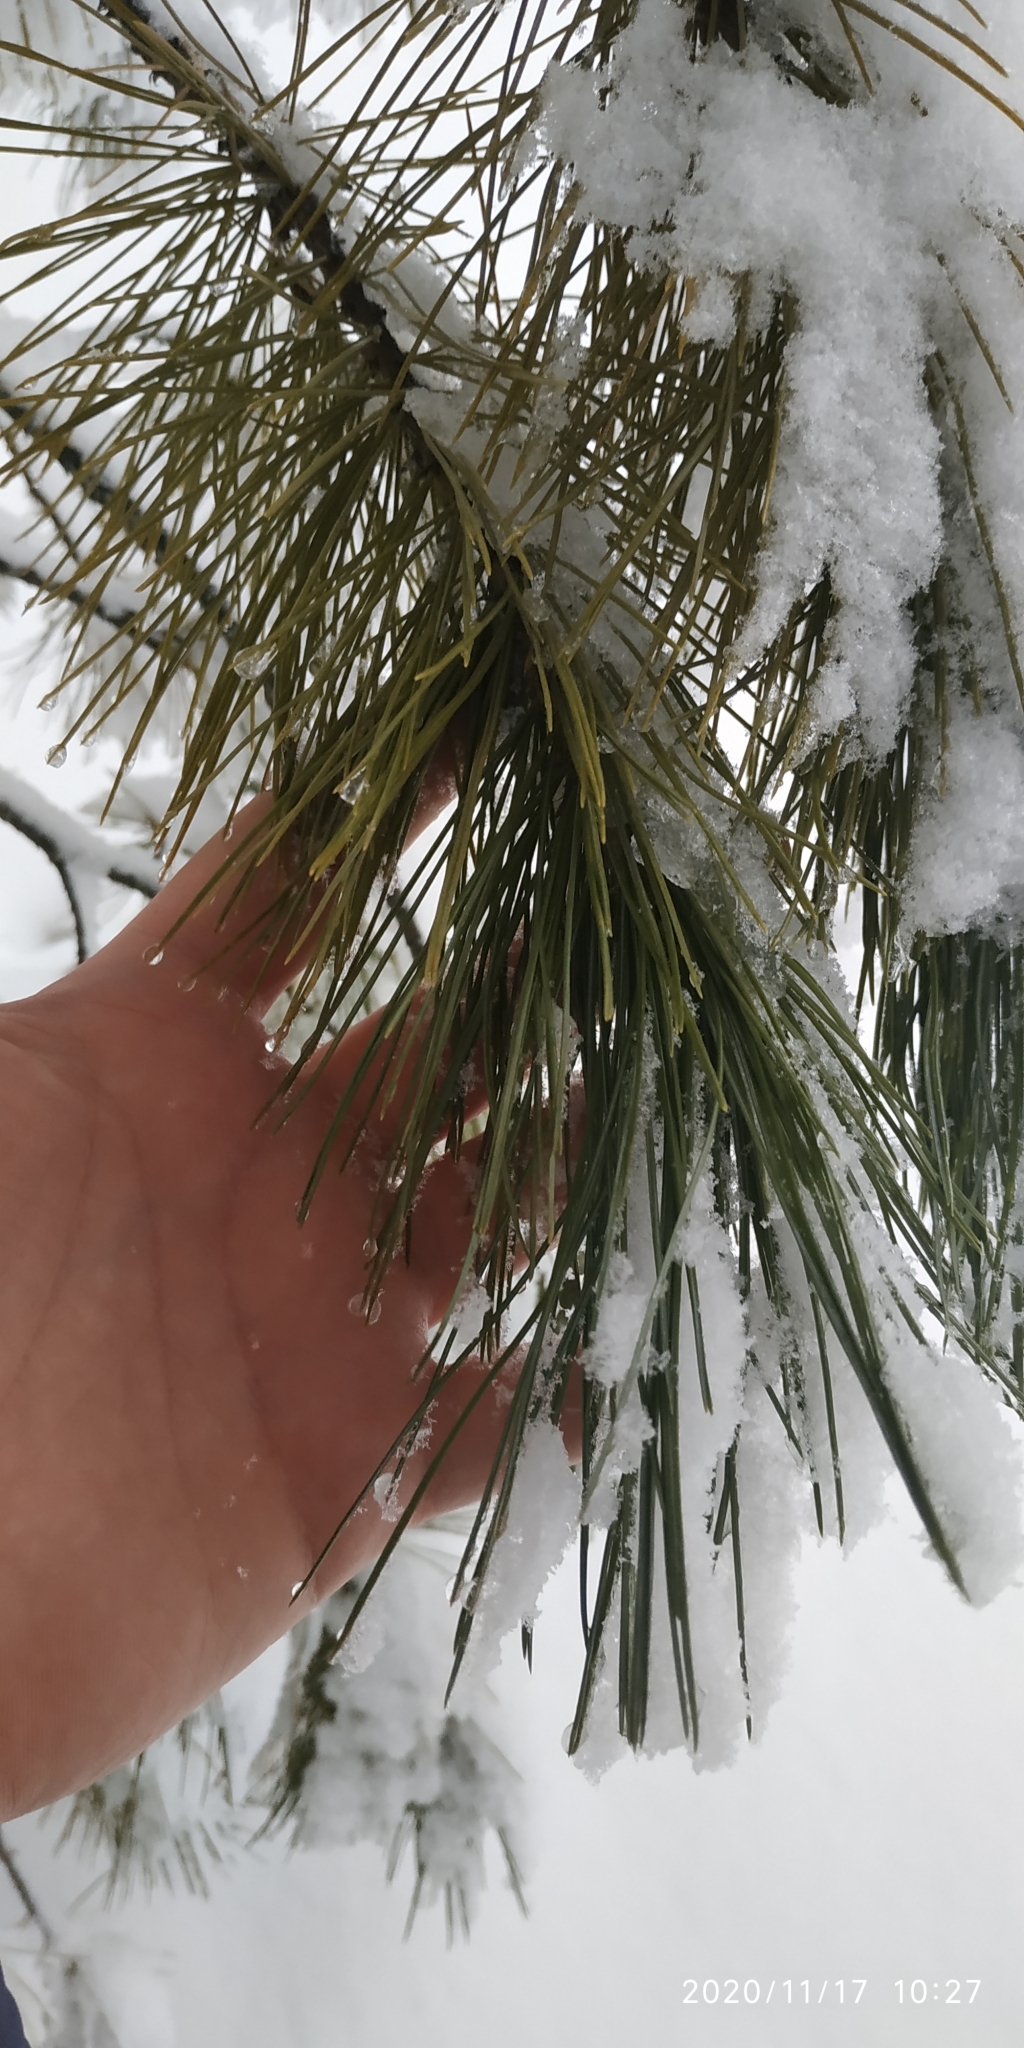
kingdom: Plantae
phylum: Tracheophyta
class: Pinopsida
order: Pinales
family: Pinaceae
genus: Pinus
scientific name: Pinus sibirica
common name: Siberian pine
